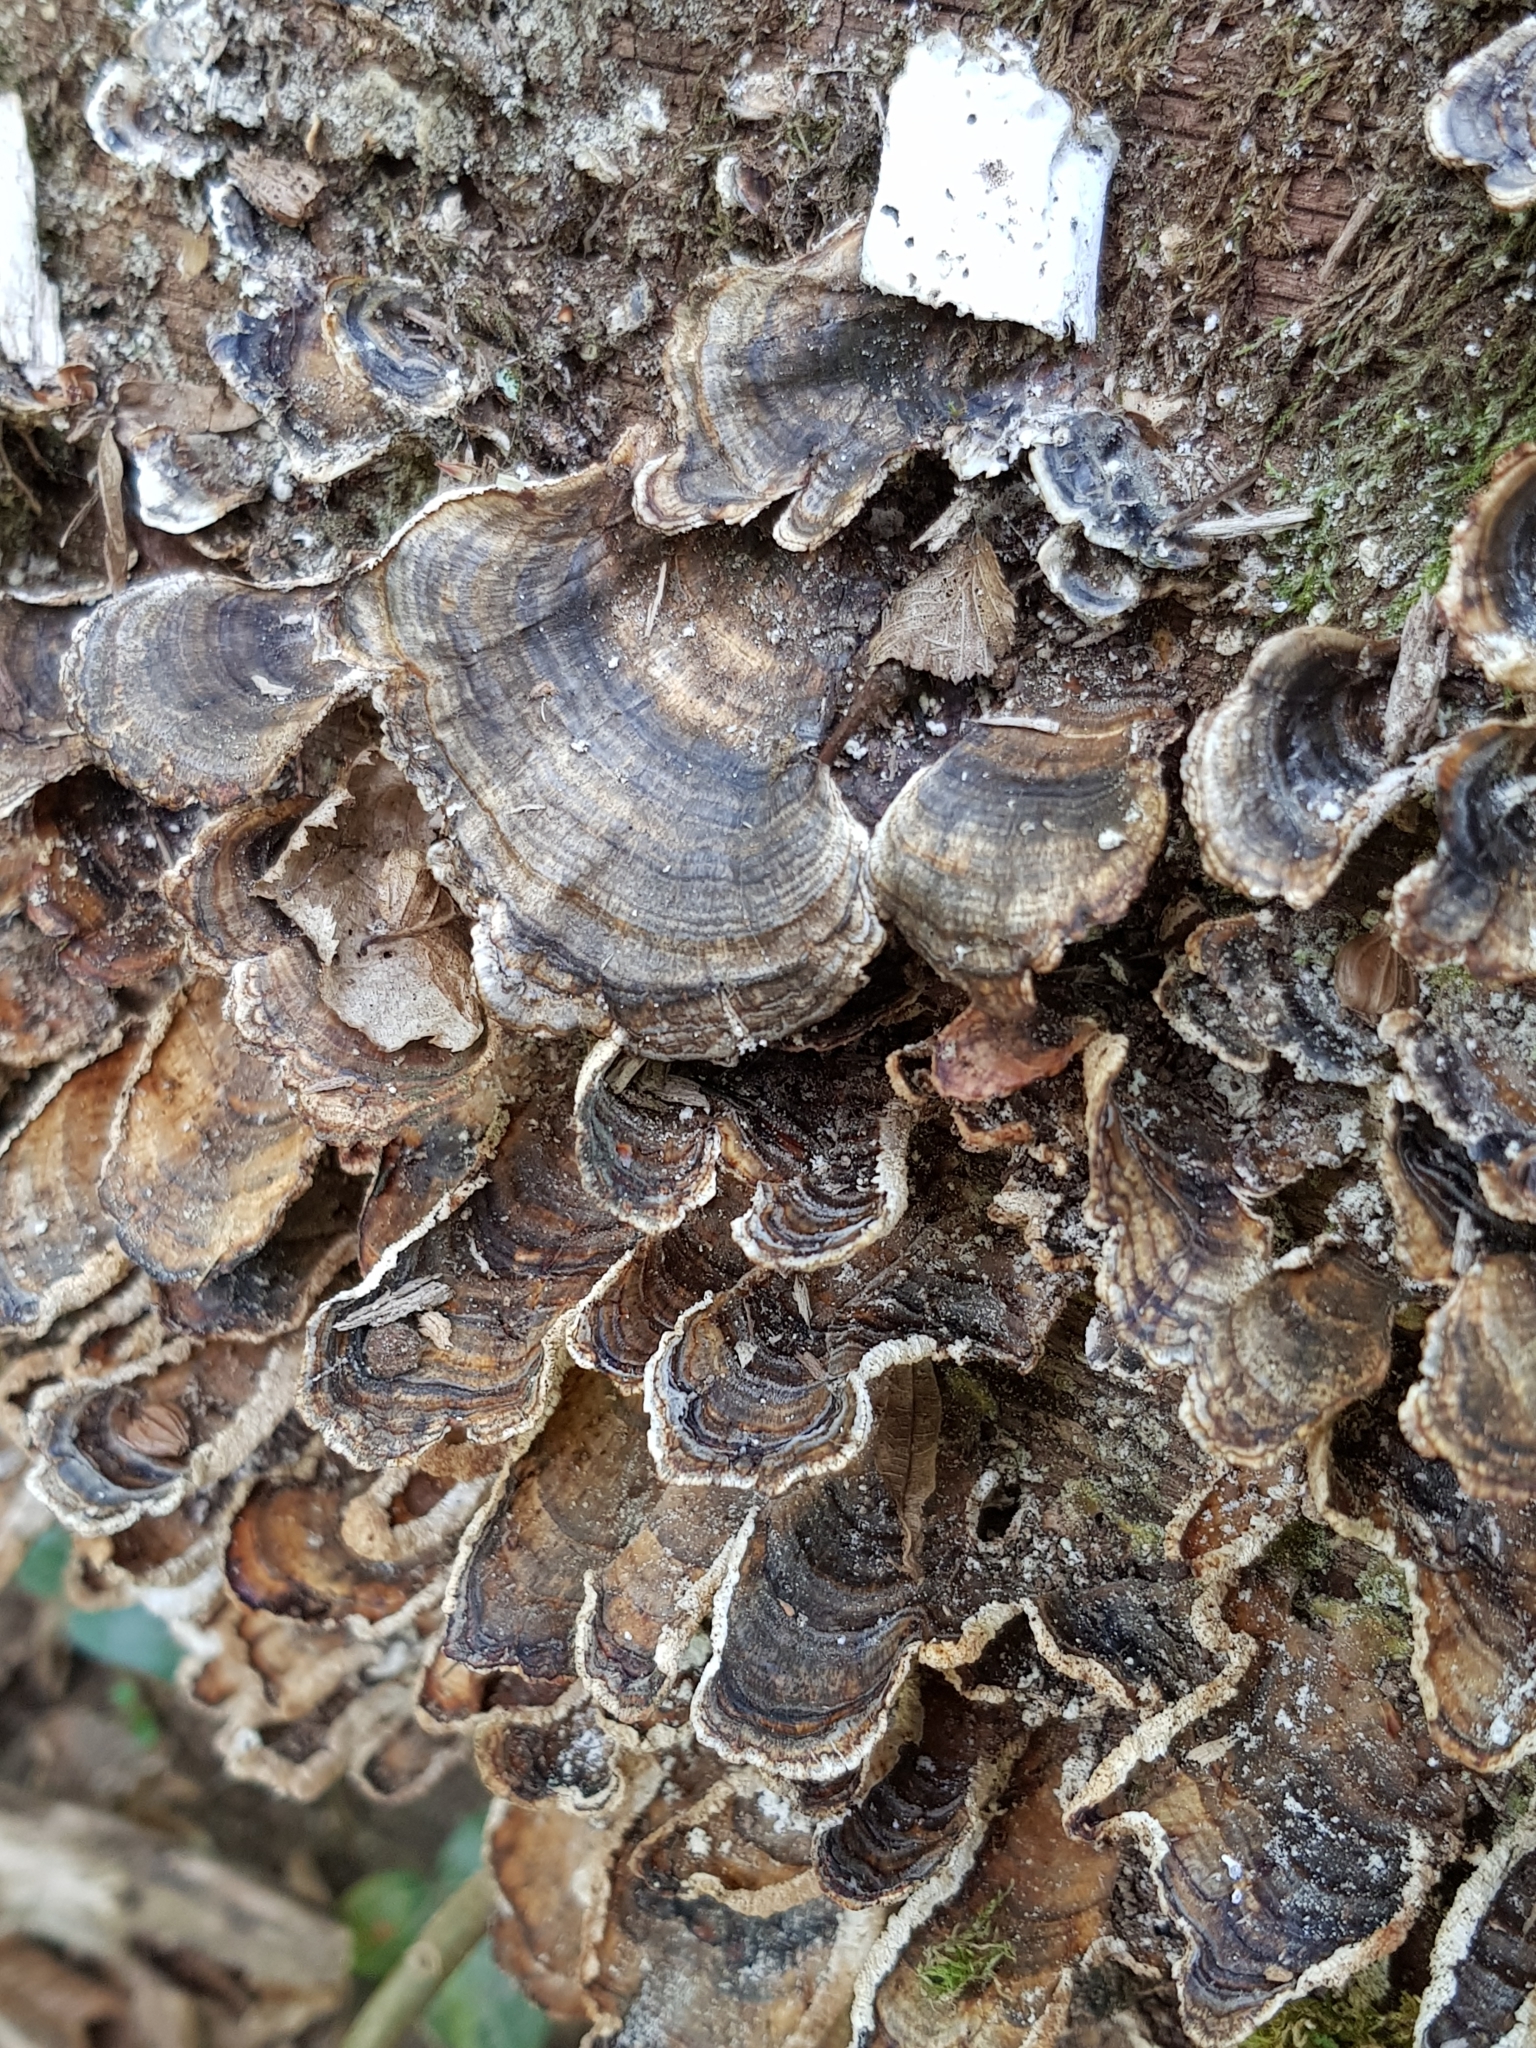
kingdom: Fungi
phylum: Basidiomycota
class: Agaricomycetes
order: Polyporales
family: Polyporaceae
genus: Trametes
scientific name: Trametes versicolor
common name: Turkeytail
